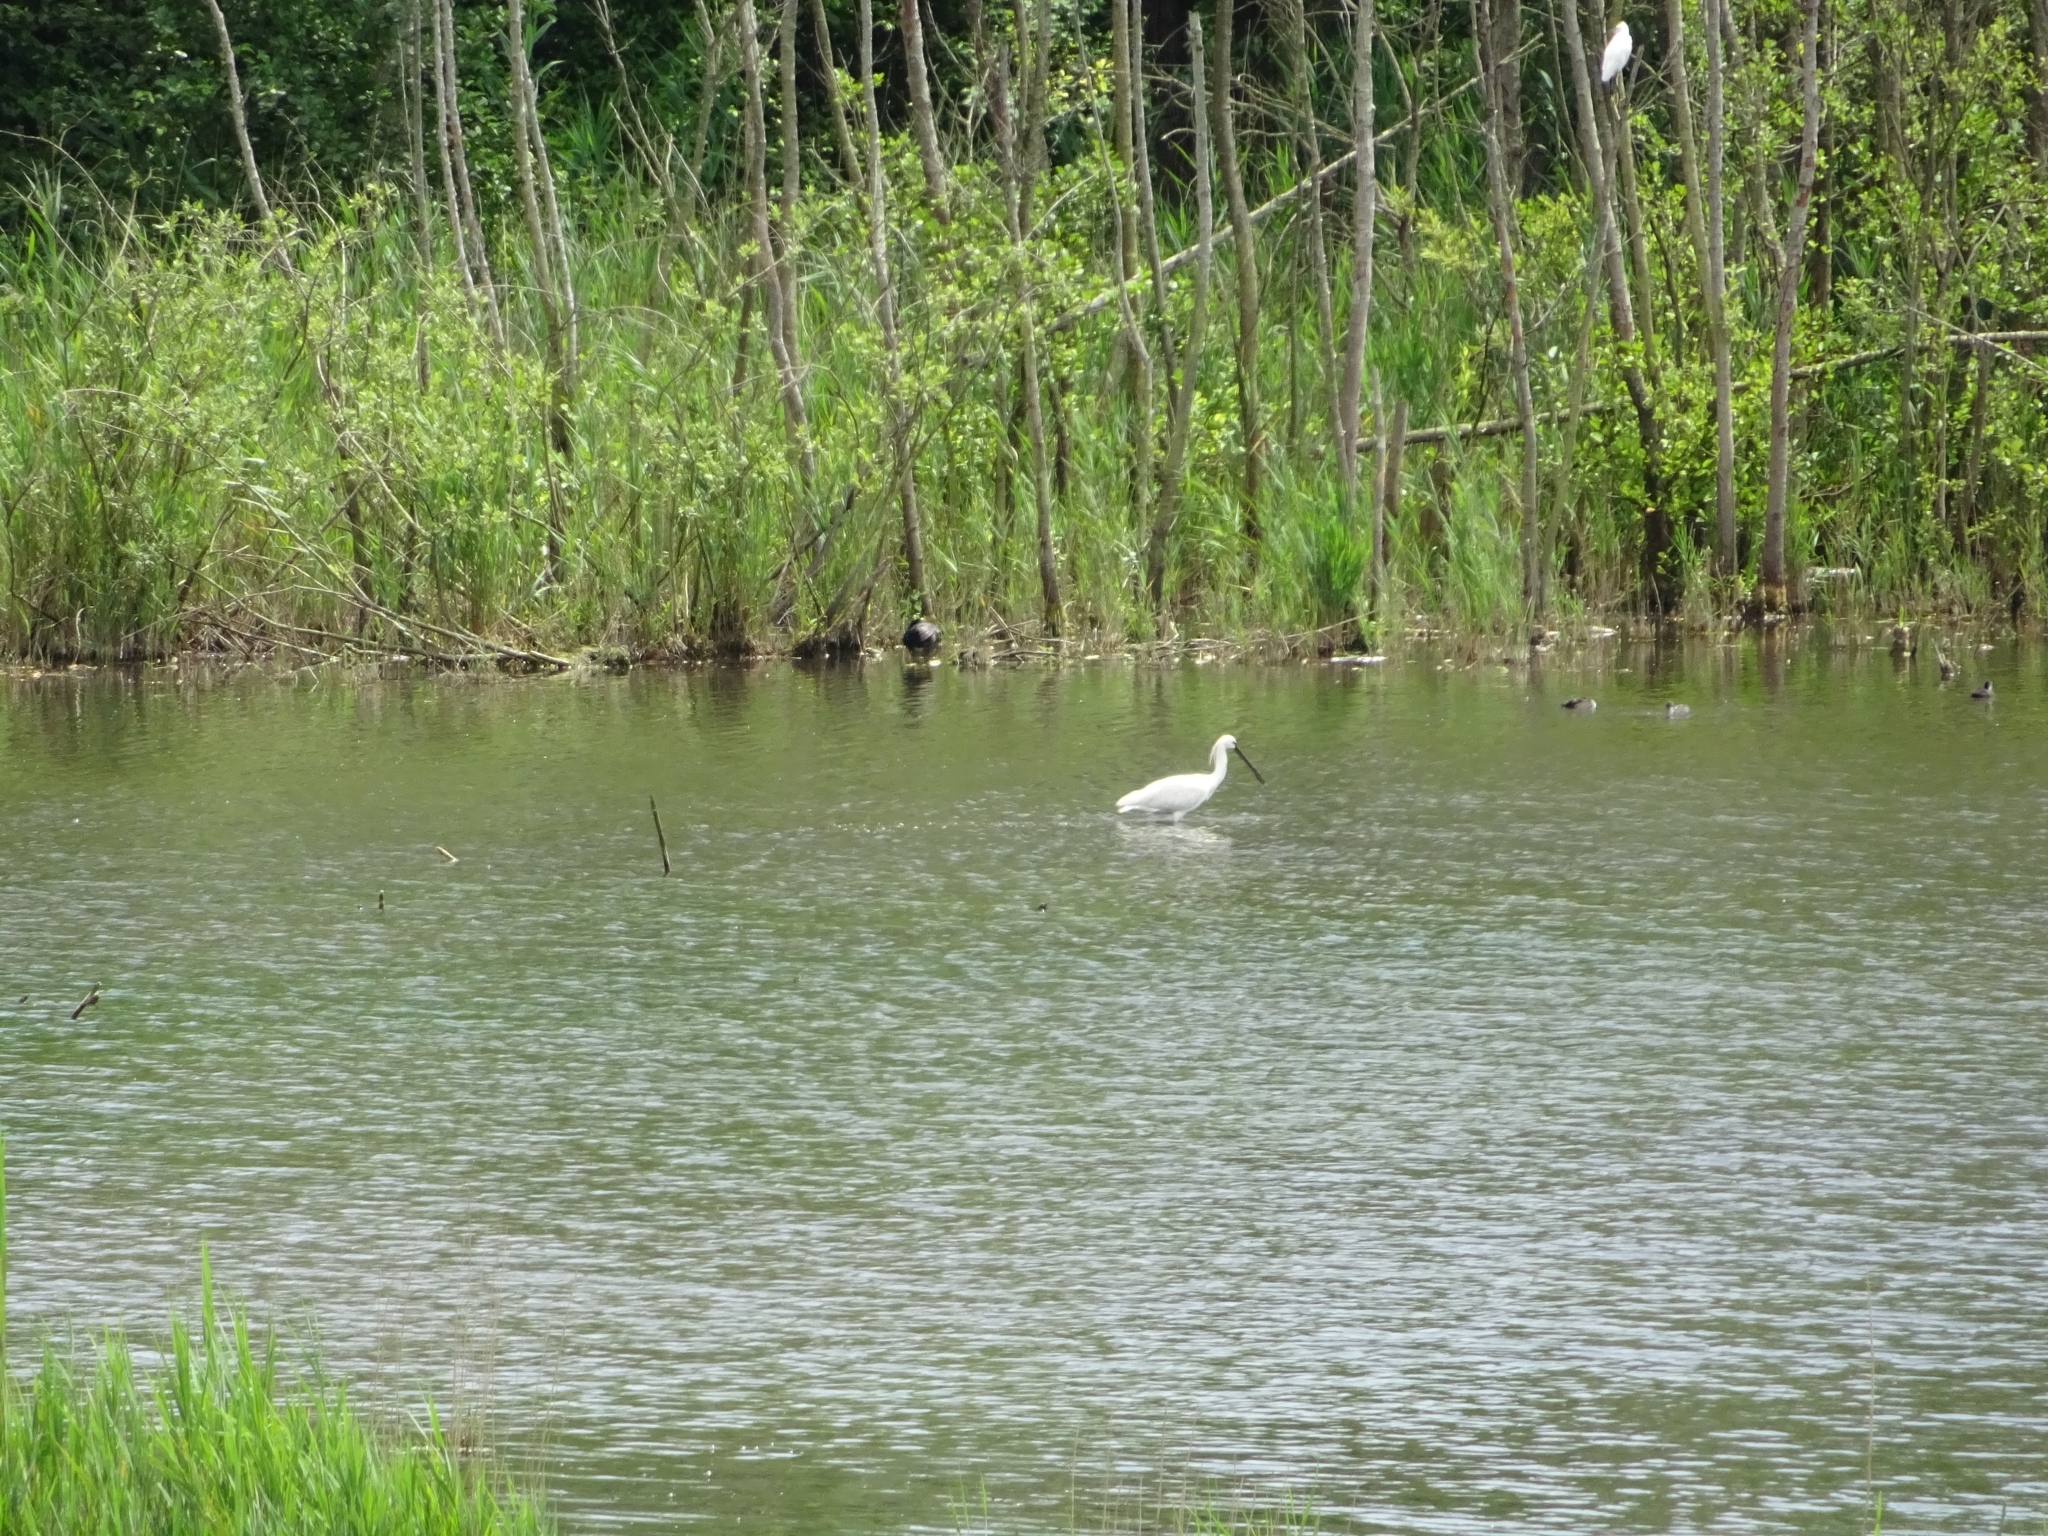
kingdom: Animalia
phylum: Chordata
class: Aves
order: Pelecaniformes
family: Threskiornithidae
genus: Platalea
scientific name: Platalea leucorodia
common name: Eurasian spoonbill
